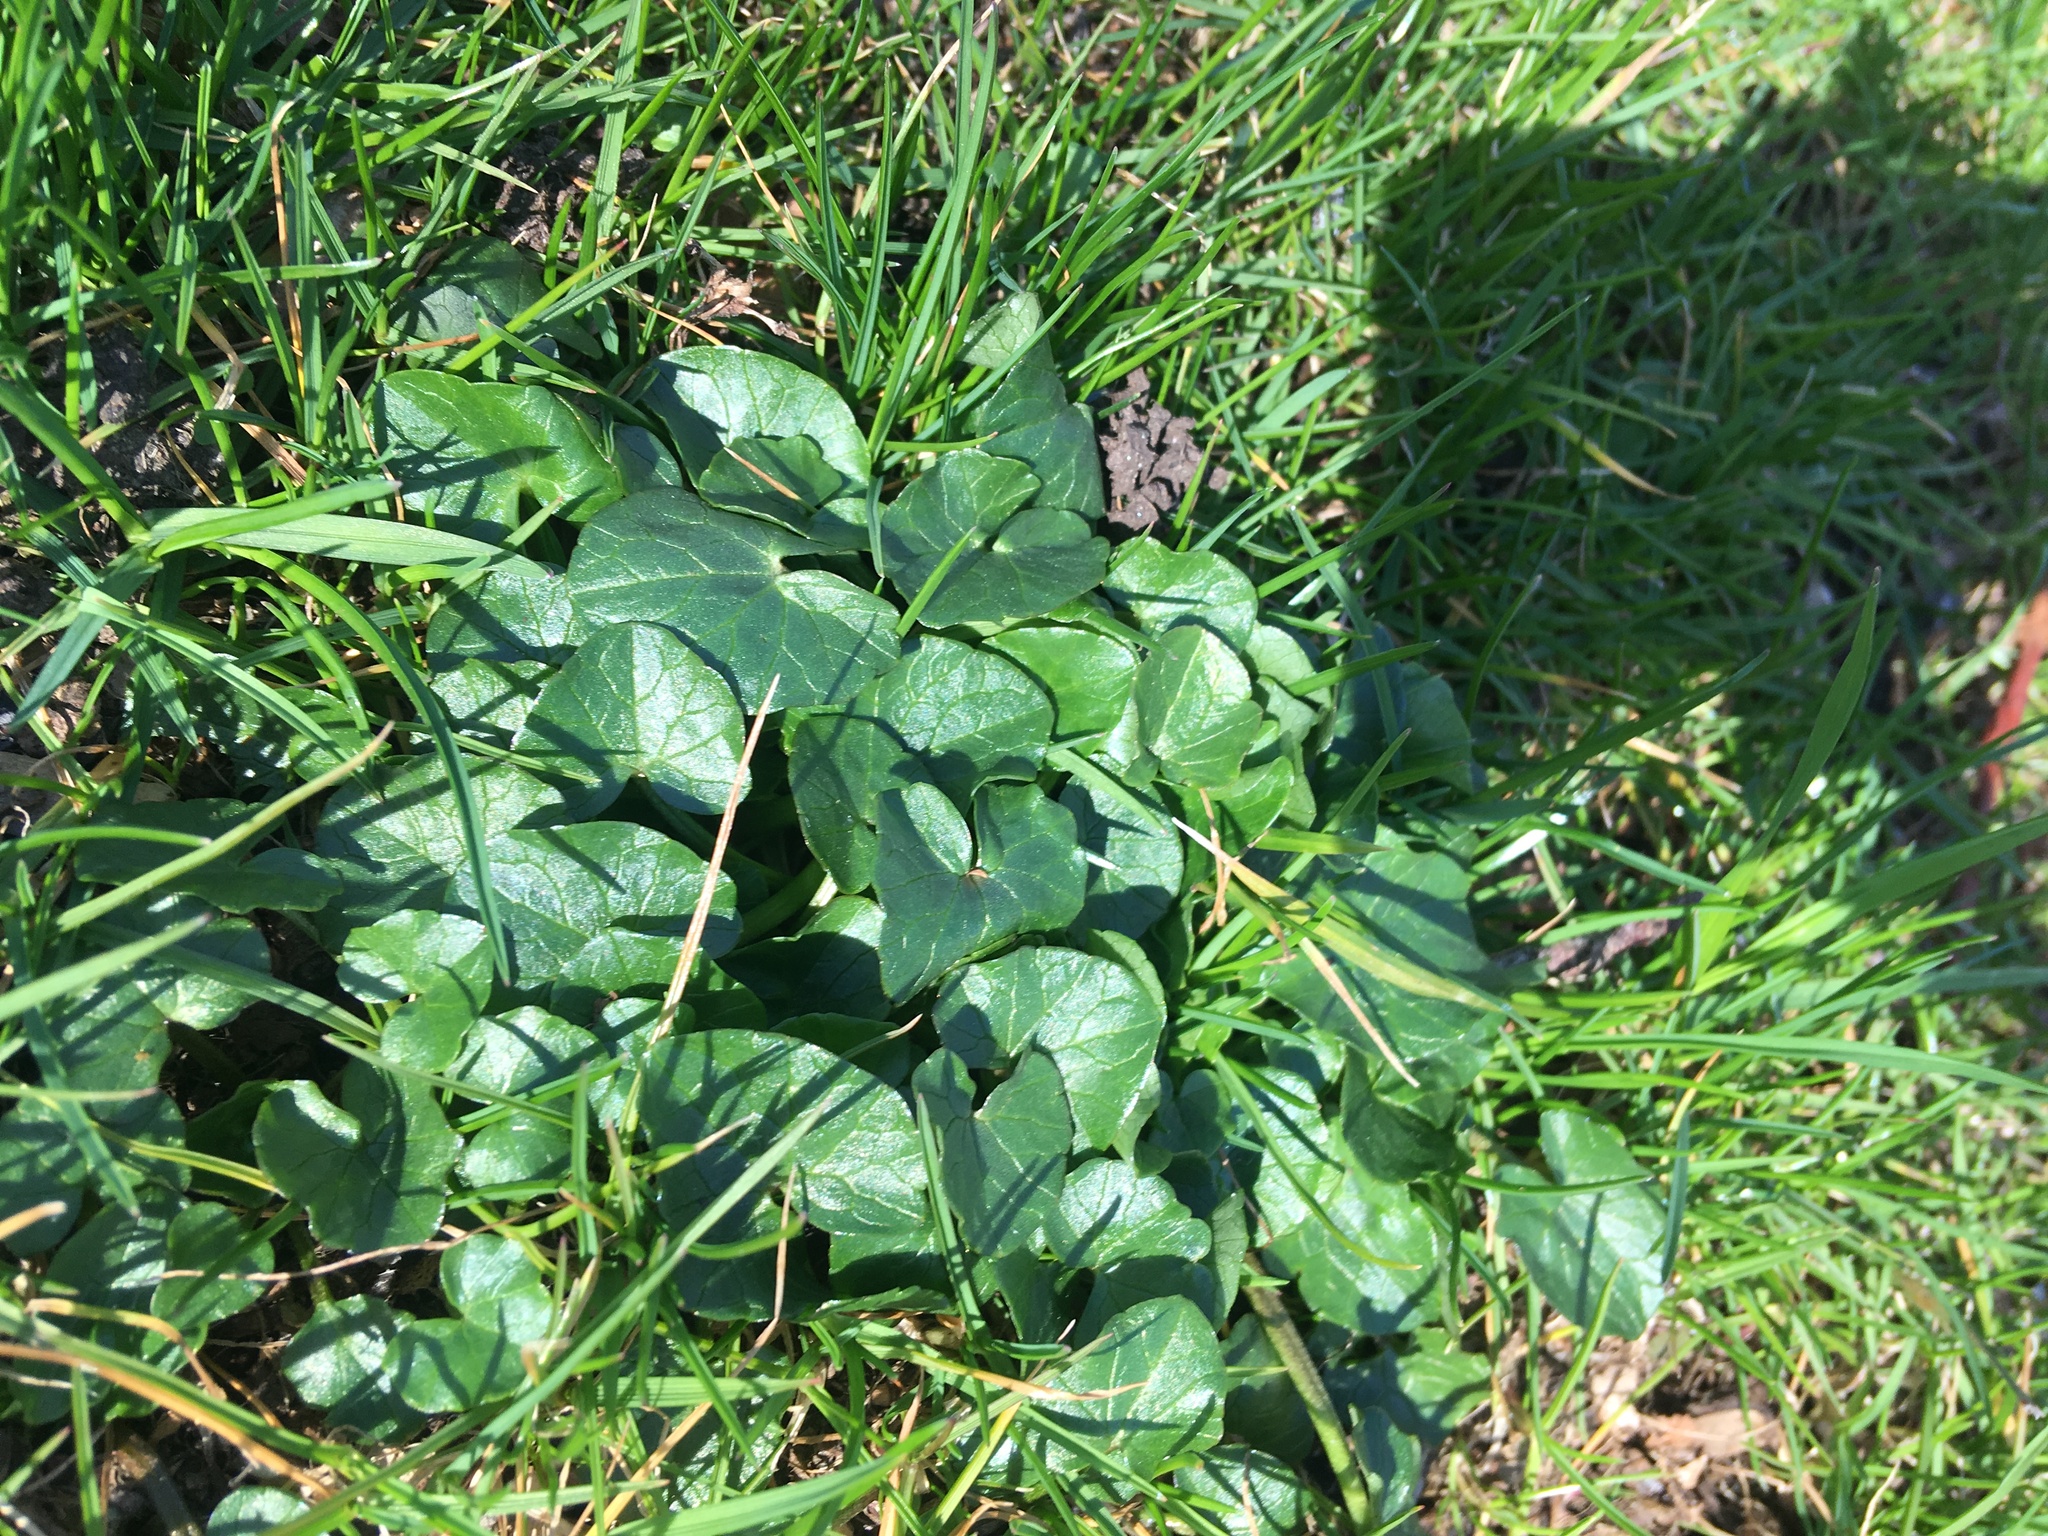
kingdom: Plantae
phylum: Tracheophyta
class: Magnoliopsida
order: Ranunculales
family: Ranunculaceae
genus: Ficaria
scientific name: Ficaria verna
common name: Lesser celandine
